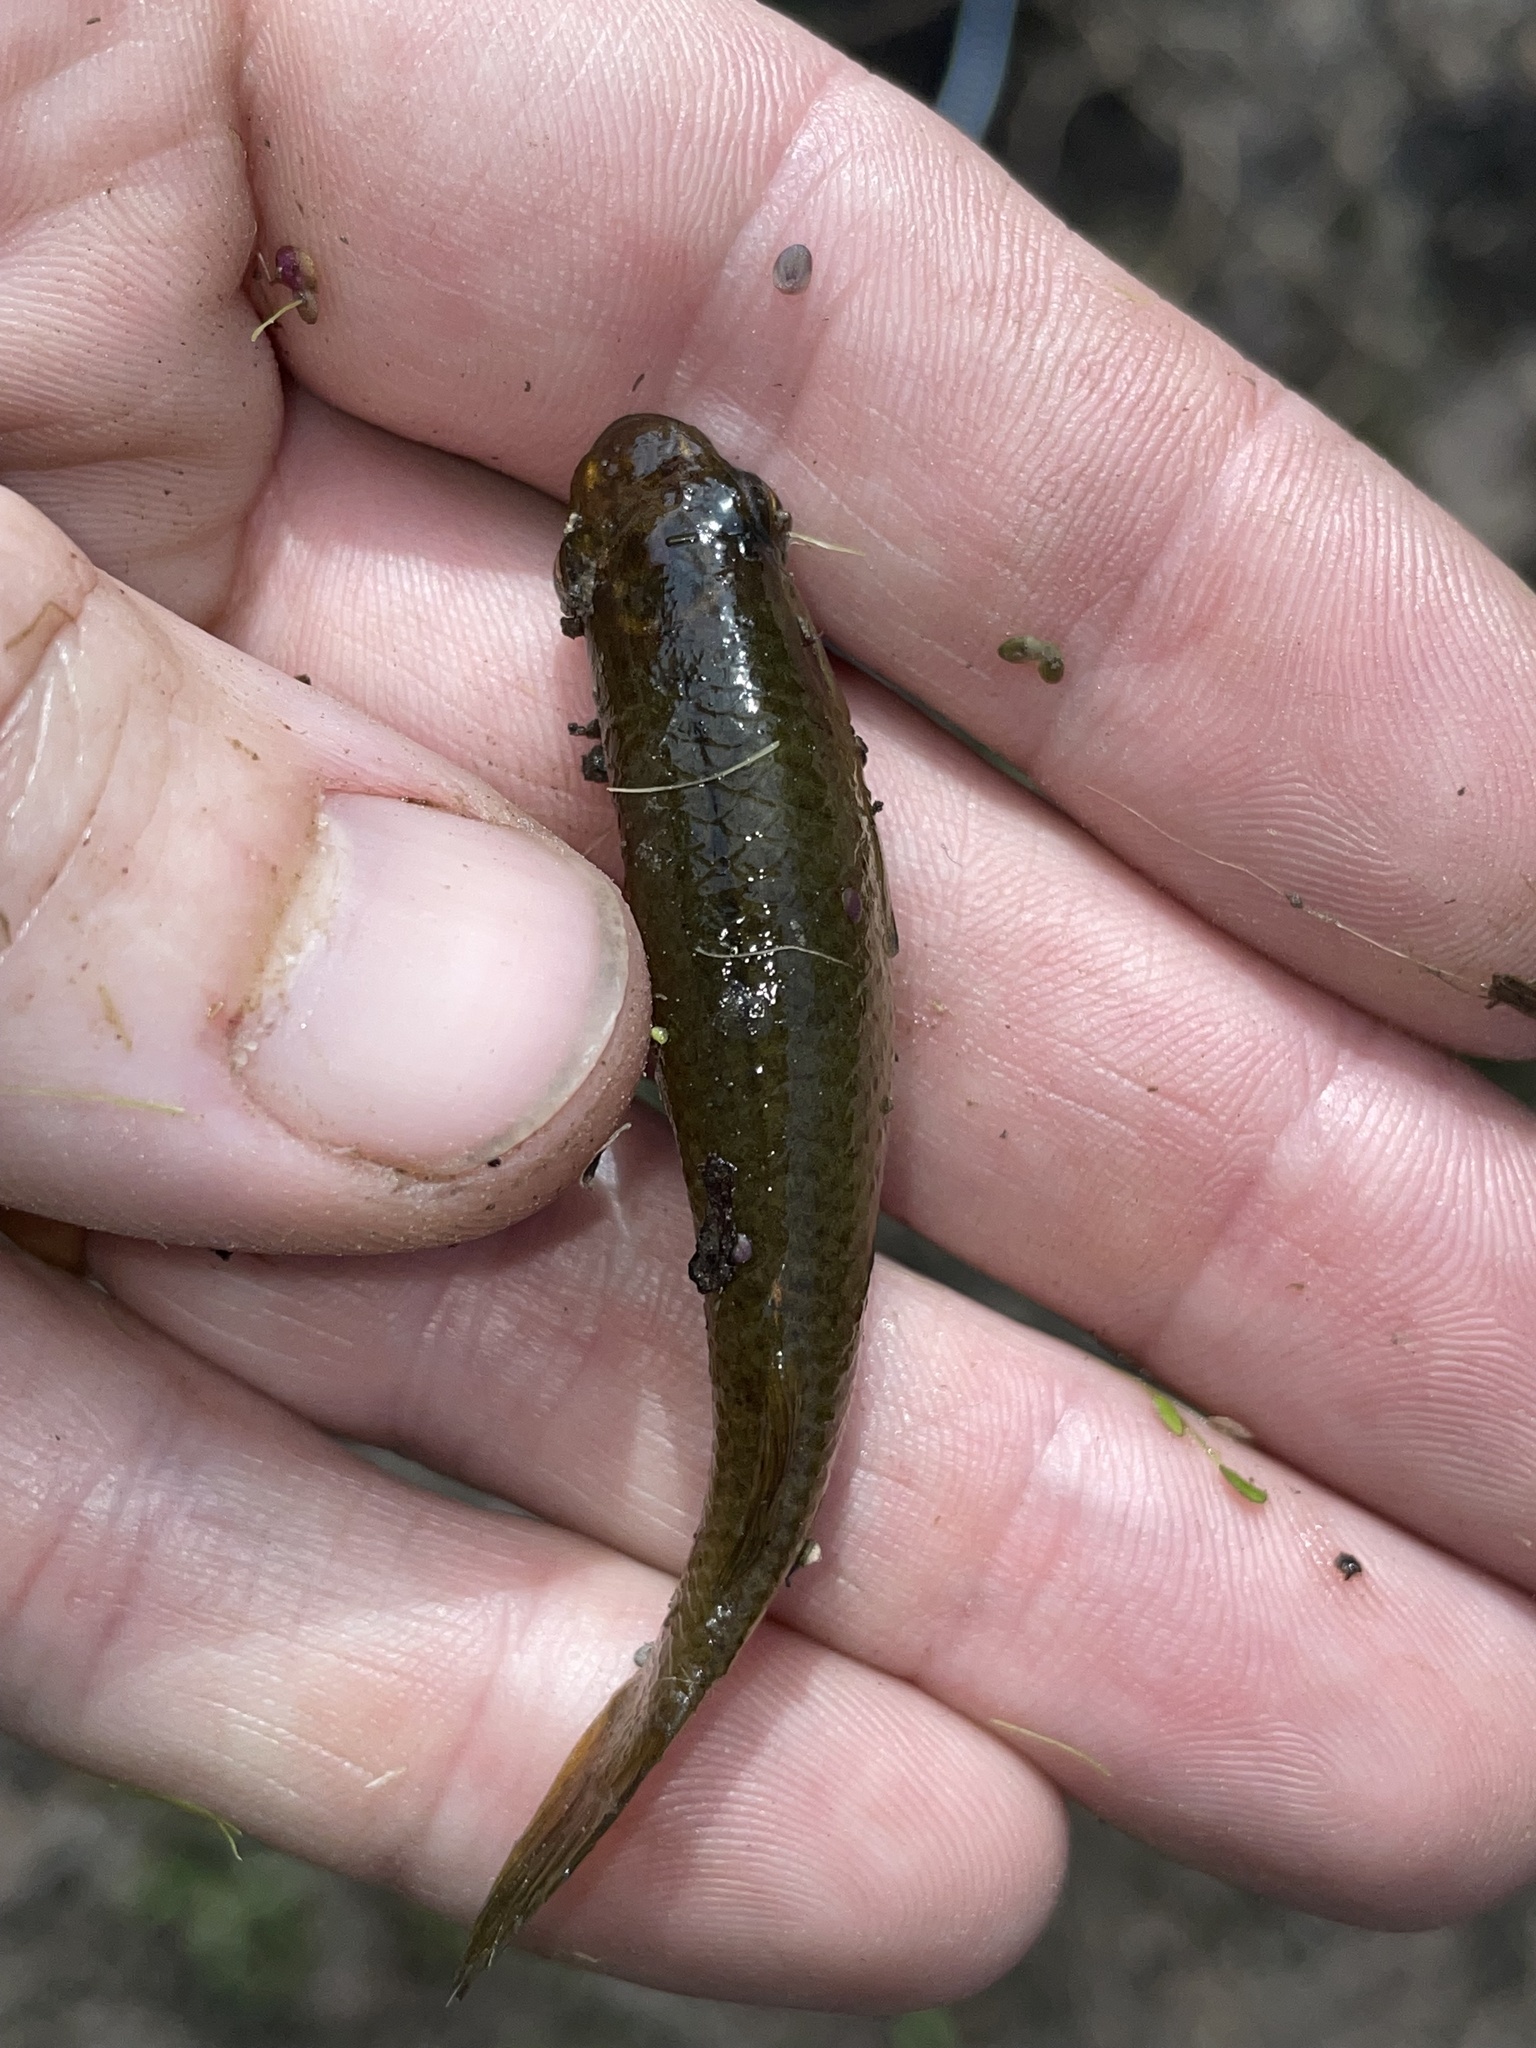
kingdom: Animalia
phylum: Chordata
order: Cyprinodontiformes
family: Fundulidae
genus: Fundulus
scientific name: Fundulus chrysotus
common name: Golden topminnow
